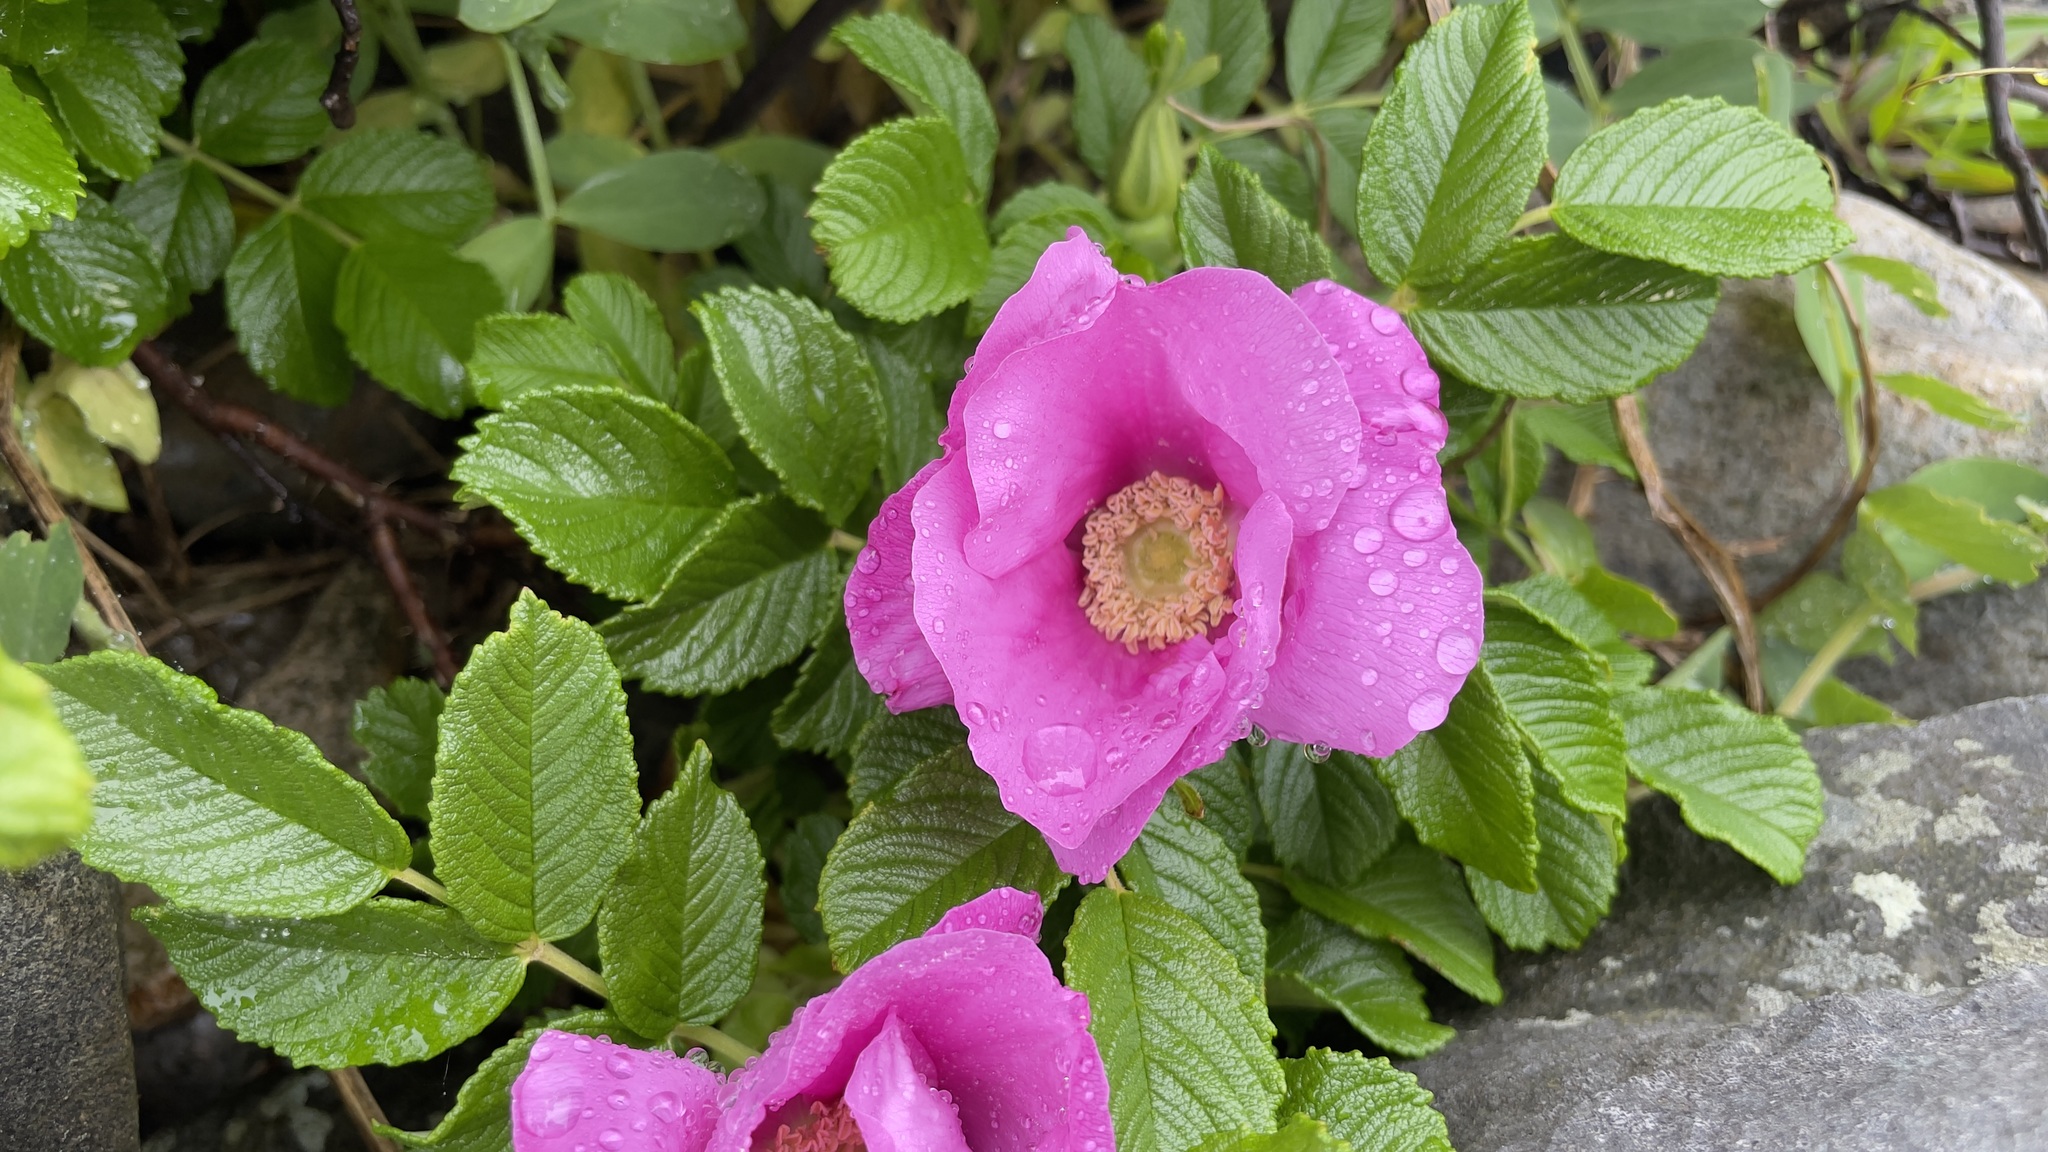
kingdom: Plantae
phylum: Tracheophyta
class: Magnoliopsida
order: Rosales
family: Rosaceae
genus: Rosa
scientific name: Rosa rugosa
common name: Japanese rose
